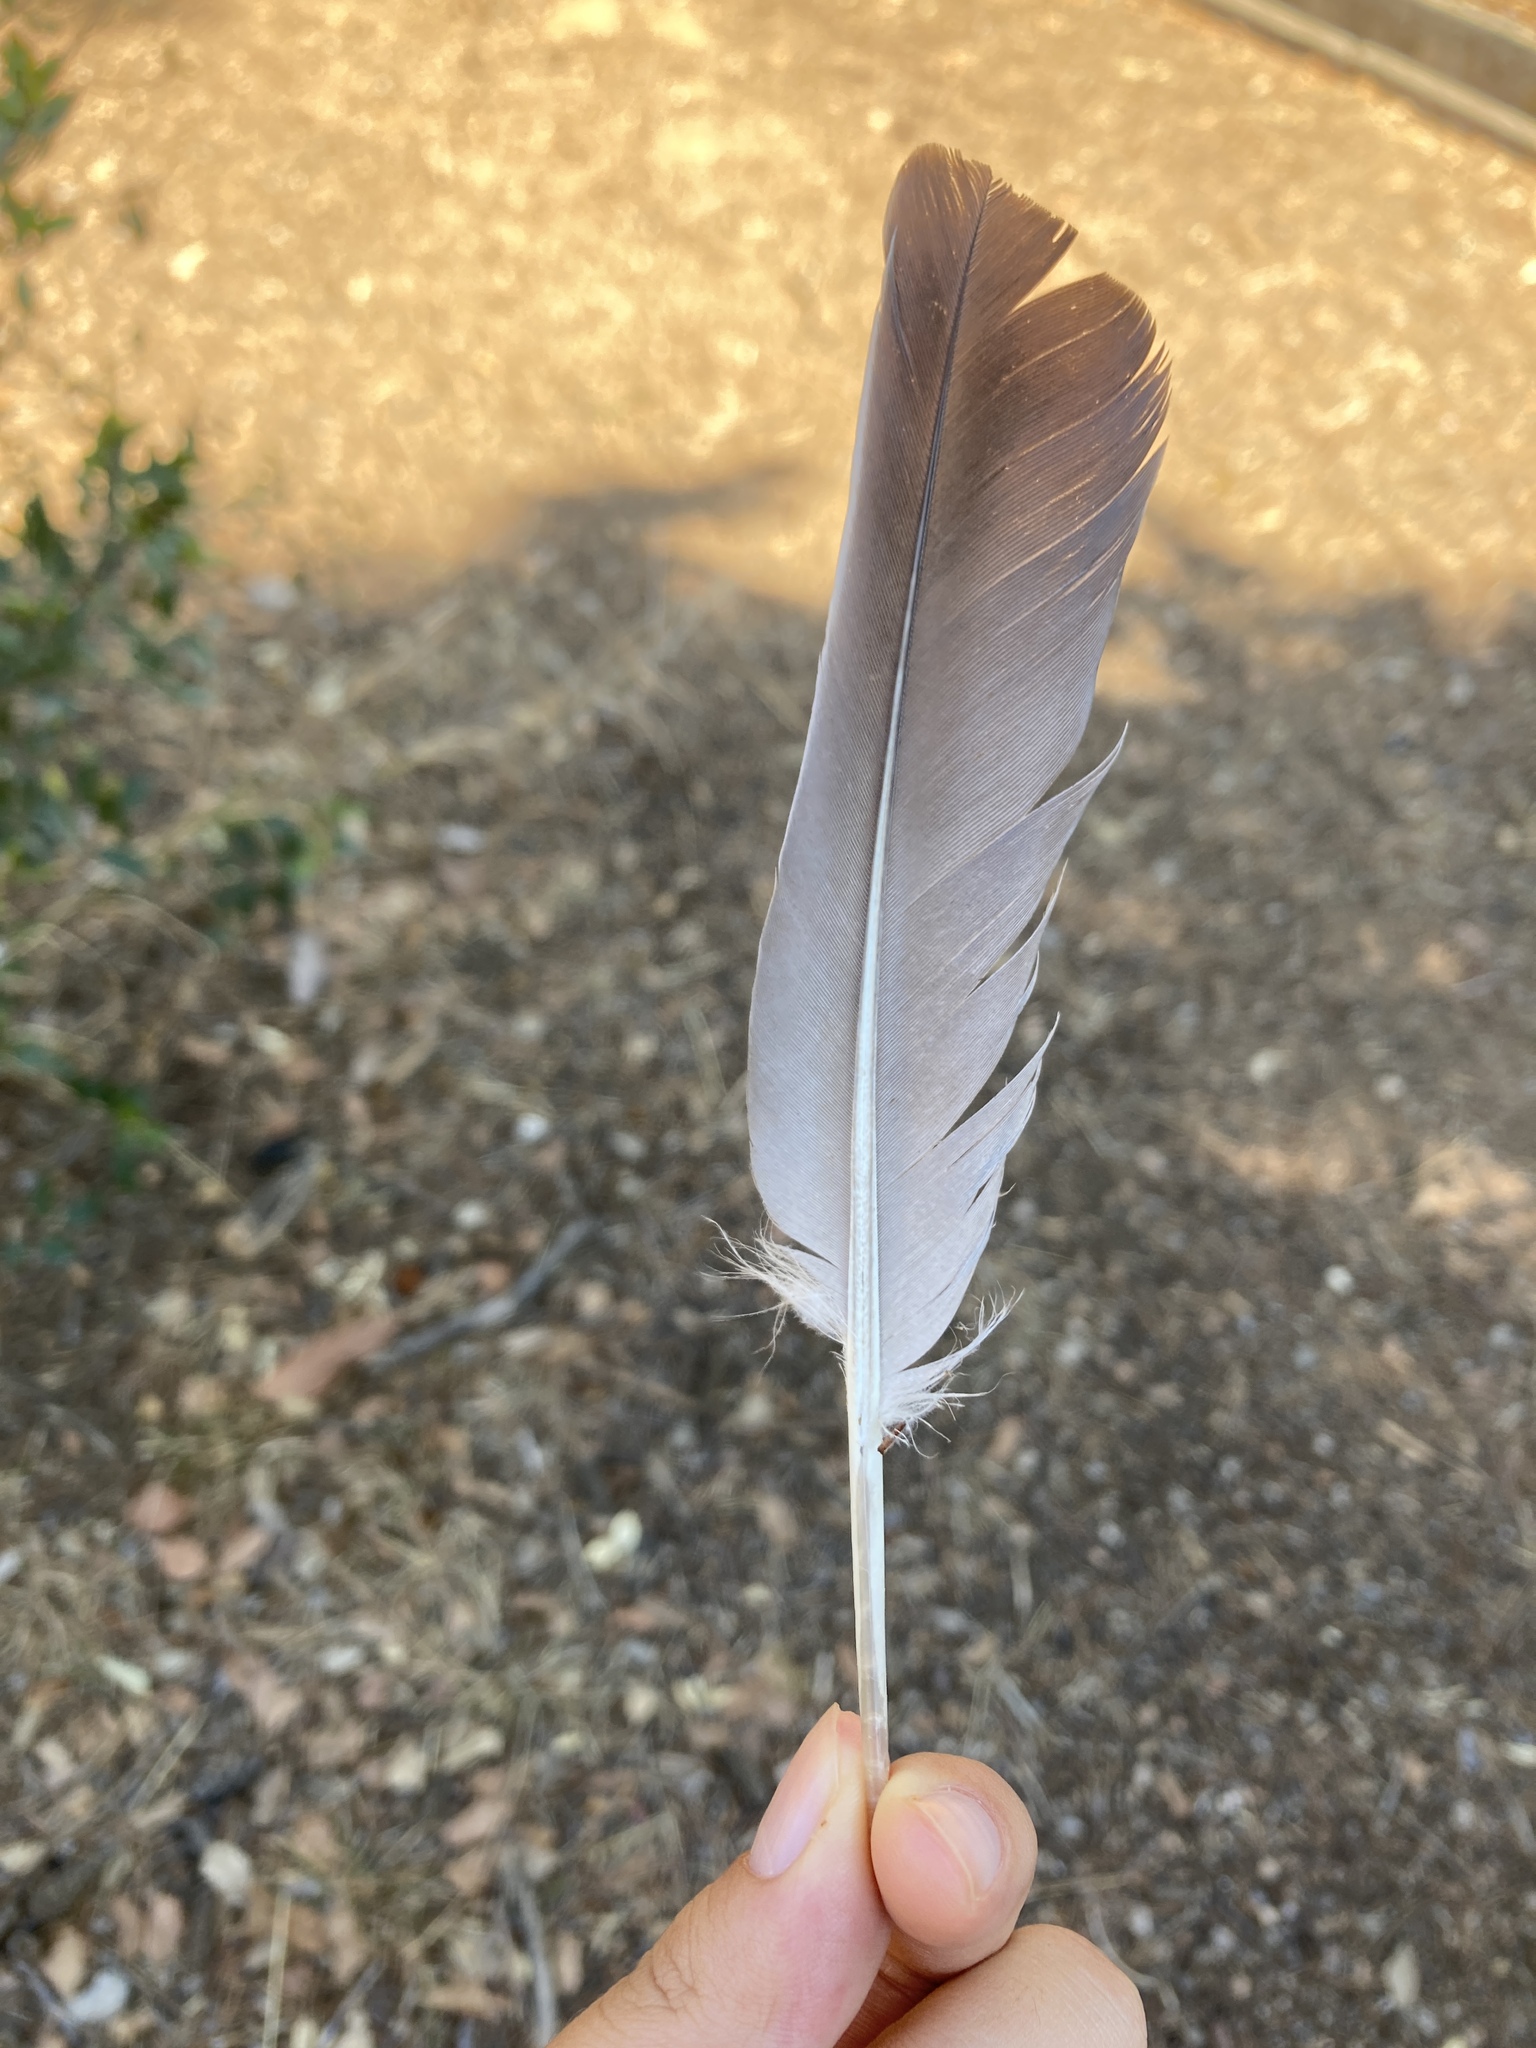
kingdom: Animalia
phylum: Chordata
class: Aves
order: Columbiformes
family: Columbidae
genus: Columba
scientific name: Columba palumbus
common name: Common wood pigeon
